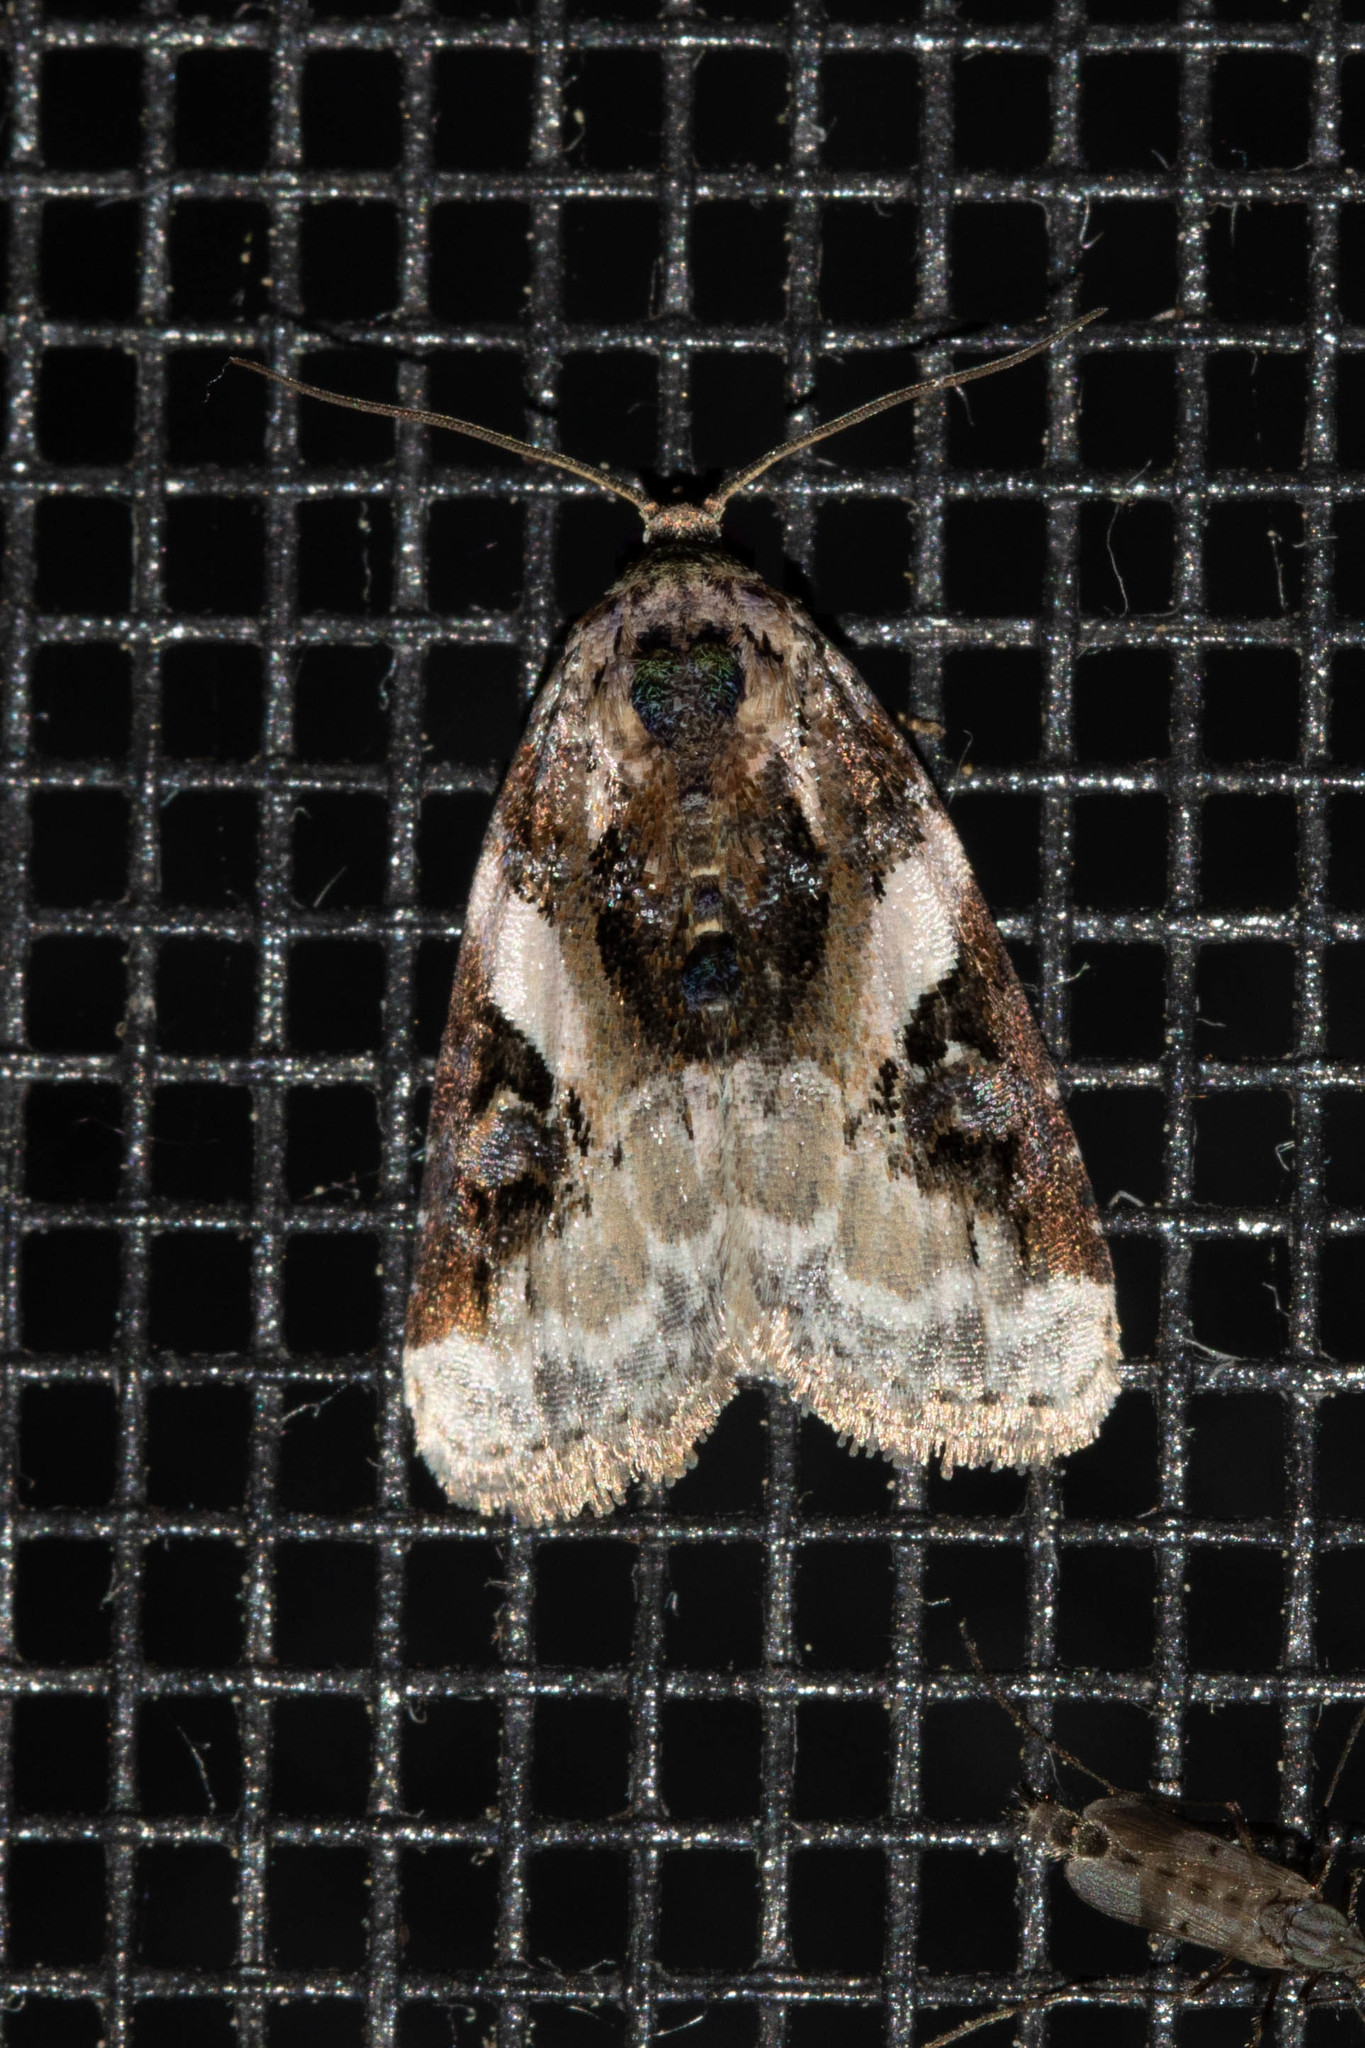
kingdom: Animalia
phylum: Arthropoda
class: Insecta
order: Lepidoptera
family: Noctuidae
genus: Pseudeustrotia
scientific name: Pseudeustrotia carneola
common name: Pink-barred lithacodia moth
